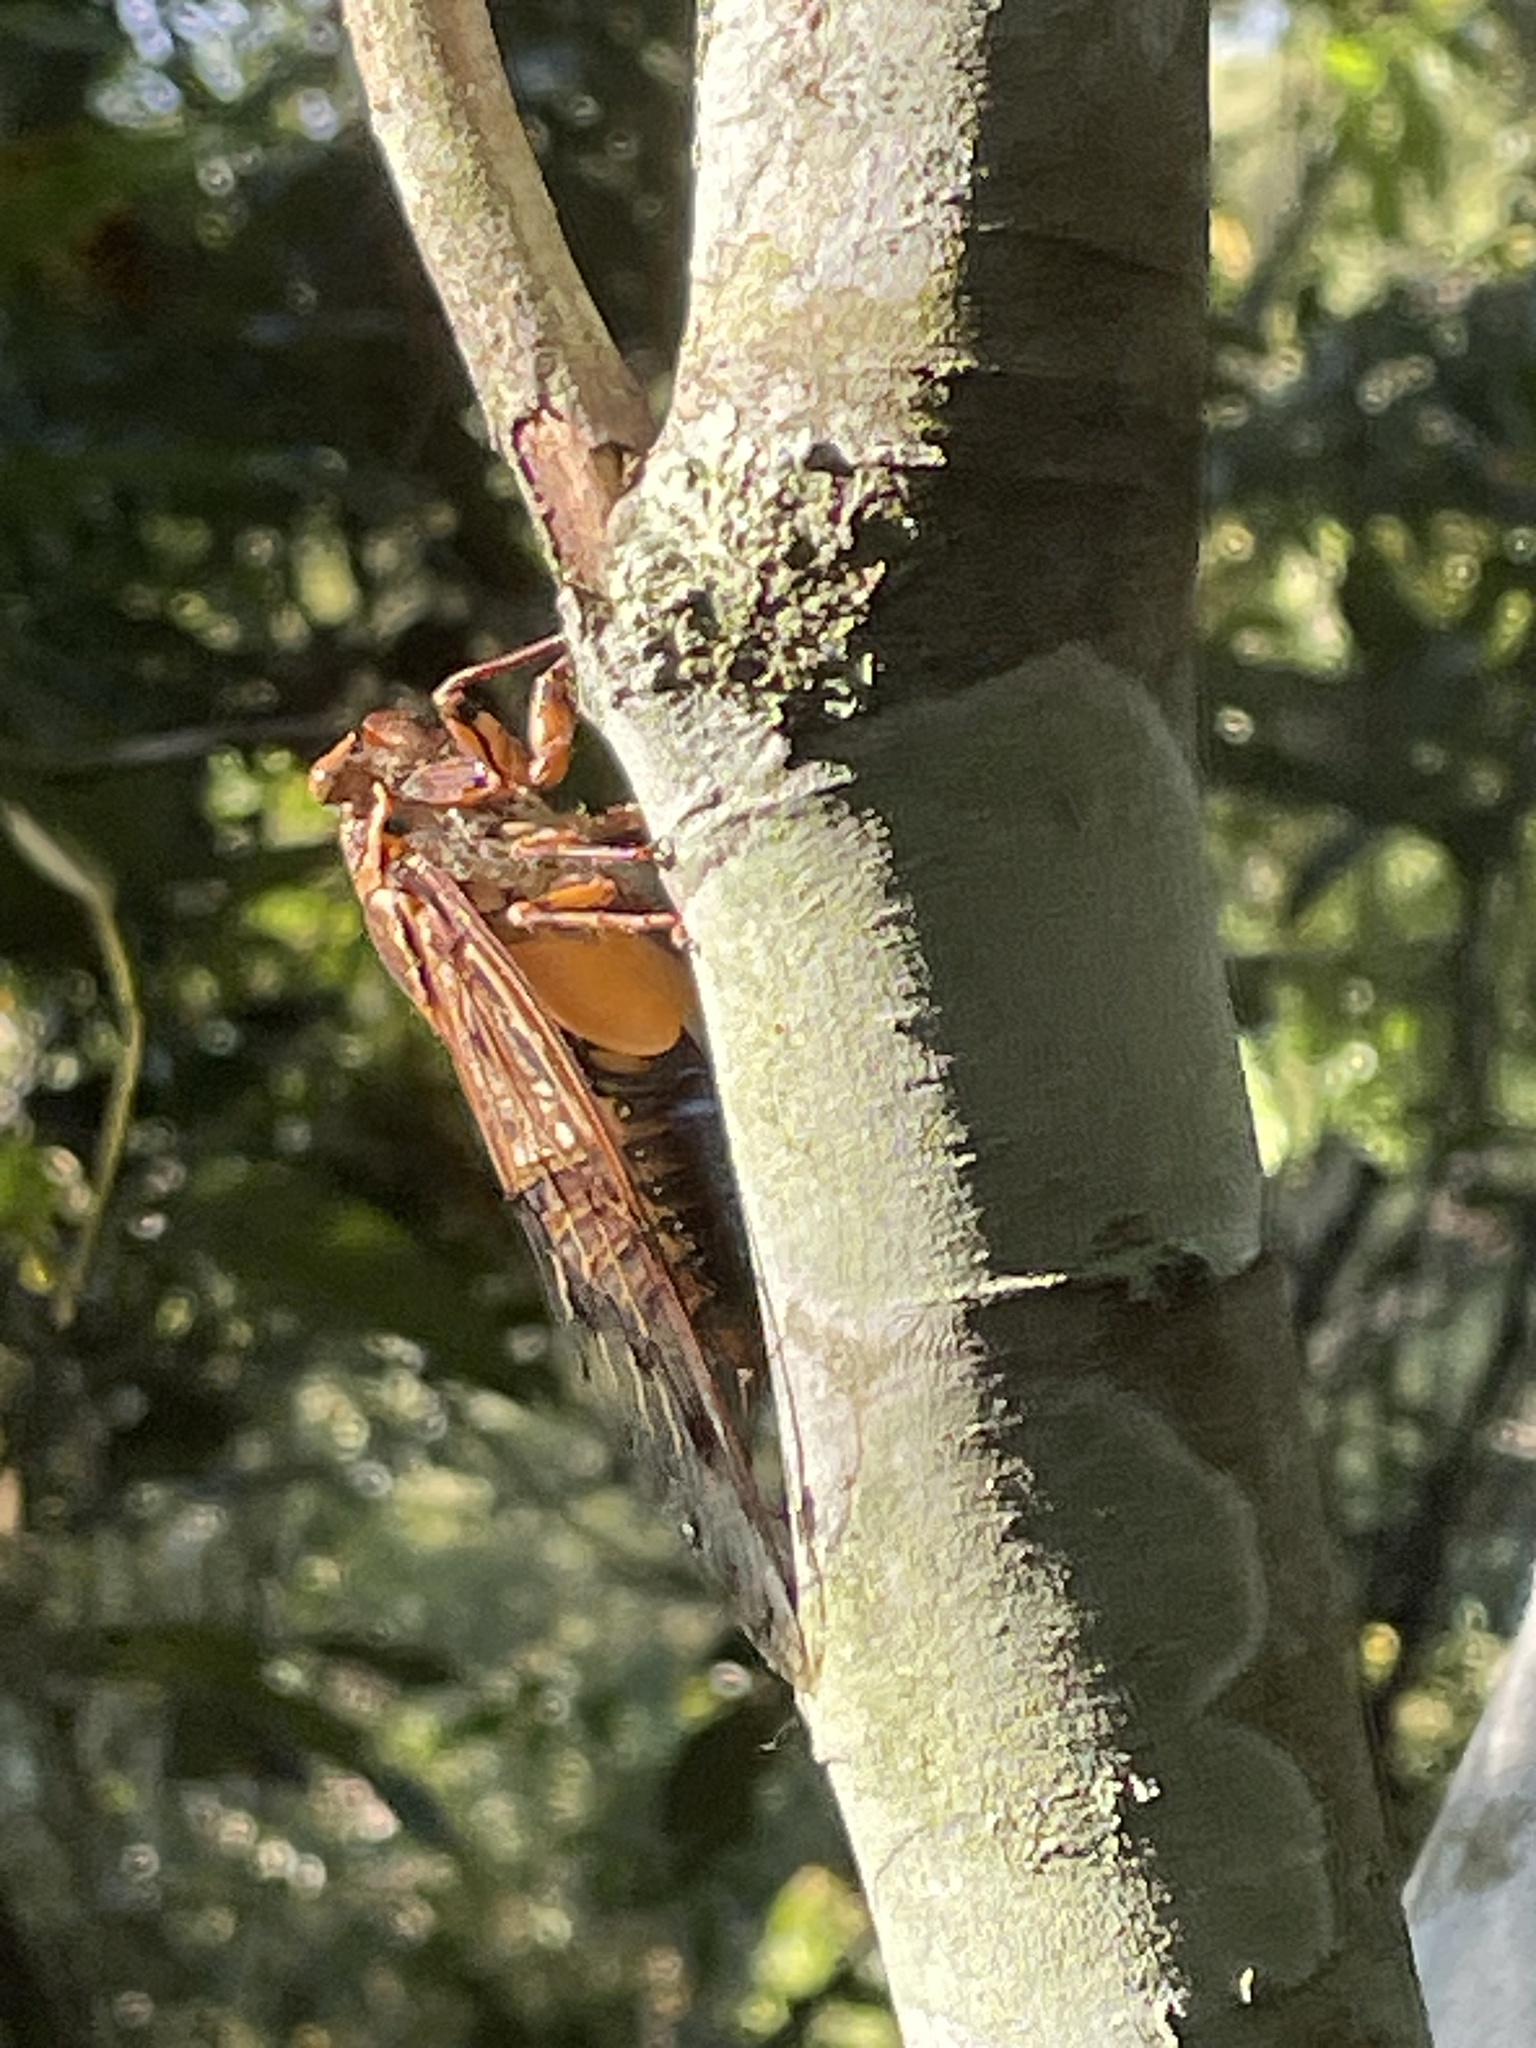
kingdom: Animalia
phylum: Arthropoda
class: Insecta
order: Hemiptera
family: Cicadidae
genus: Henicopsaltria
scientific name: Henicopsaltria eydouxii
